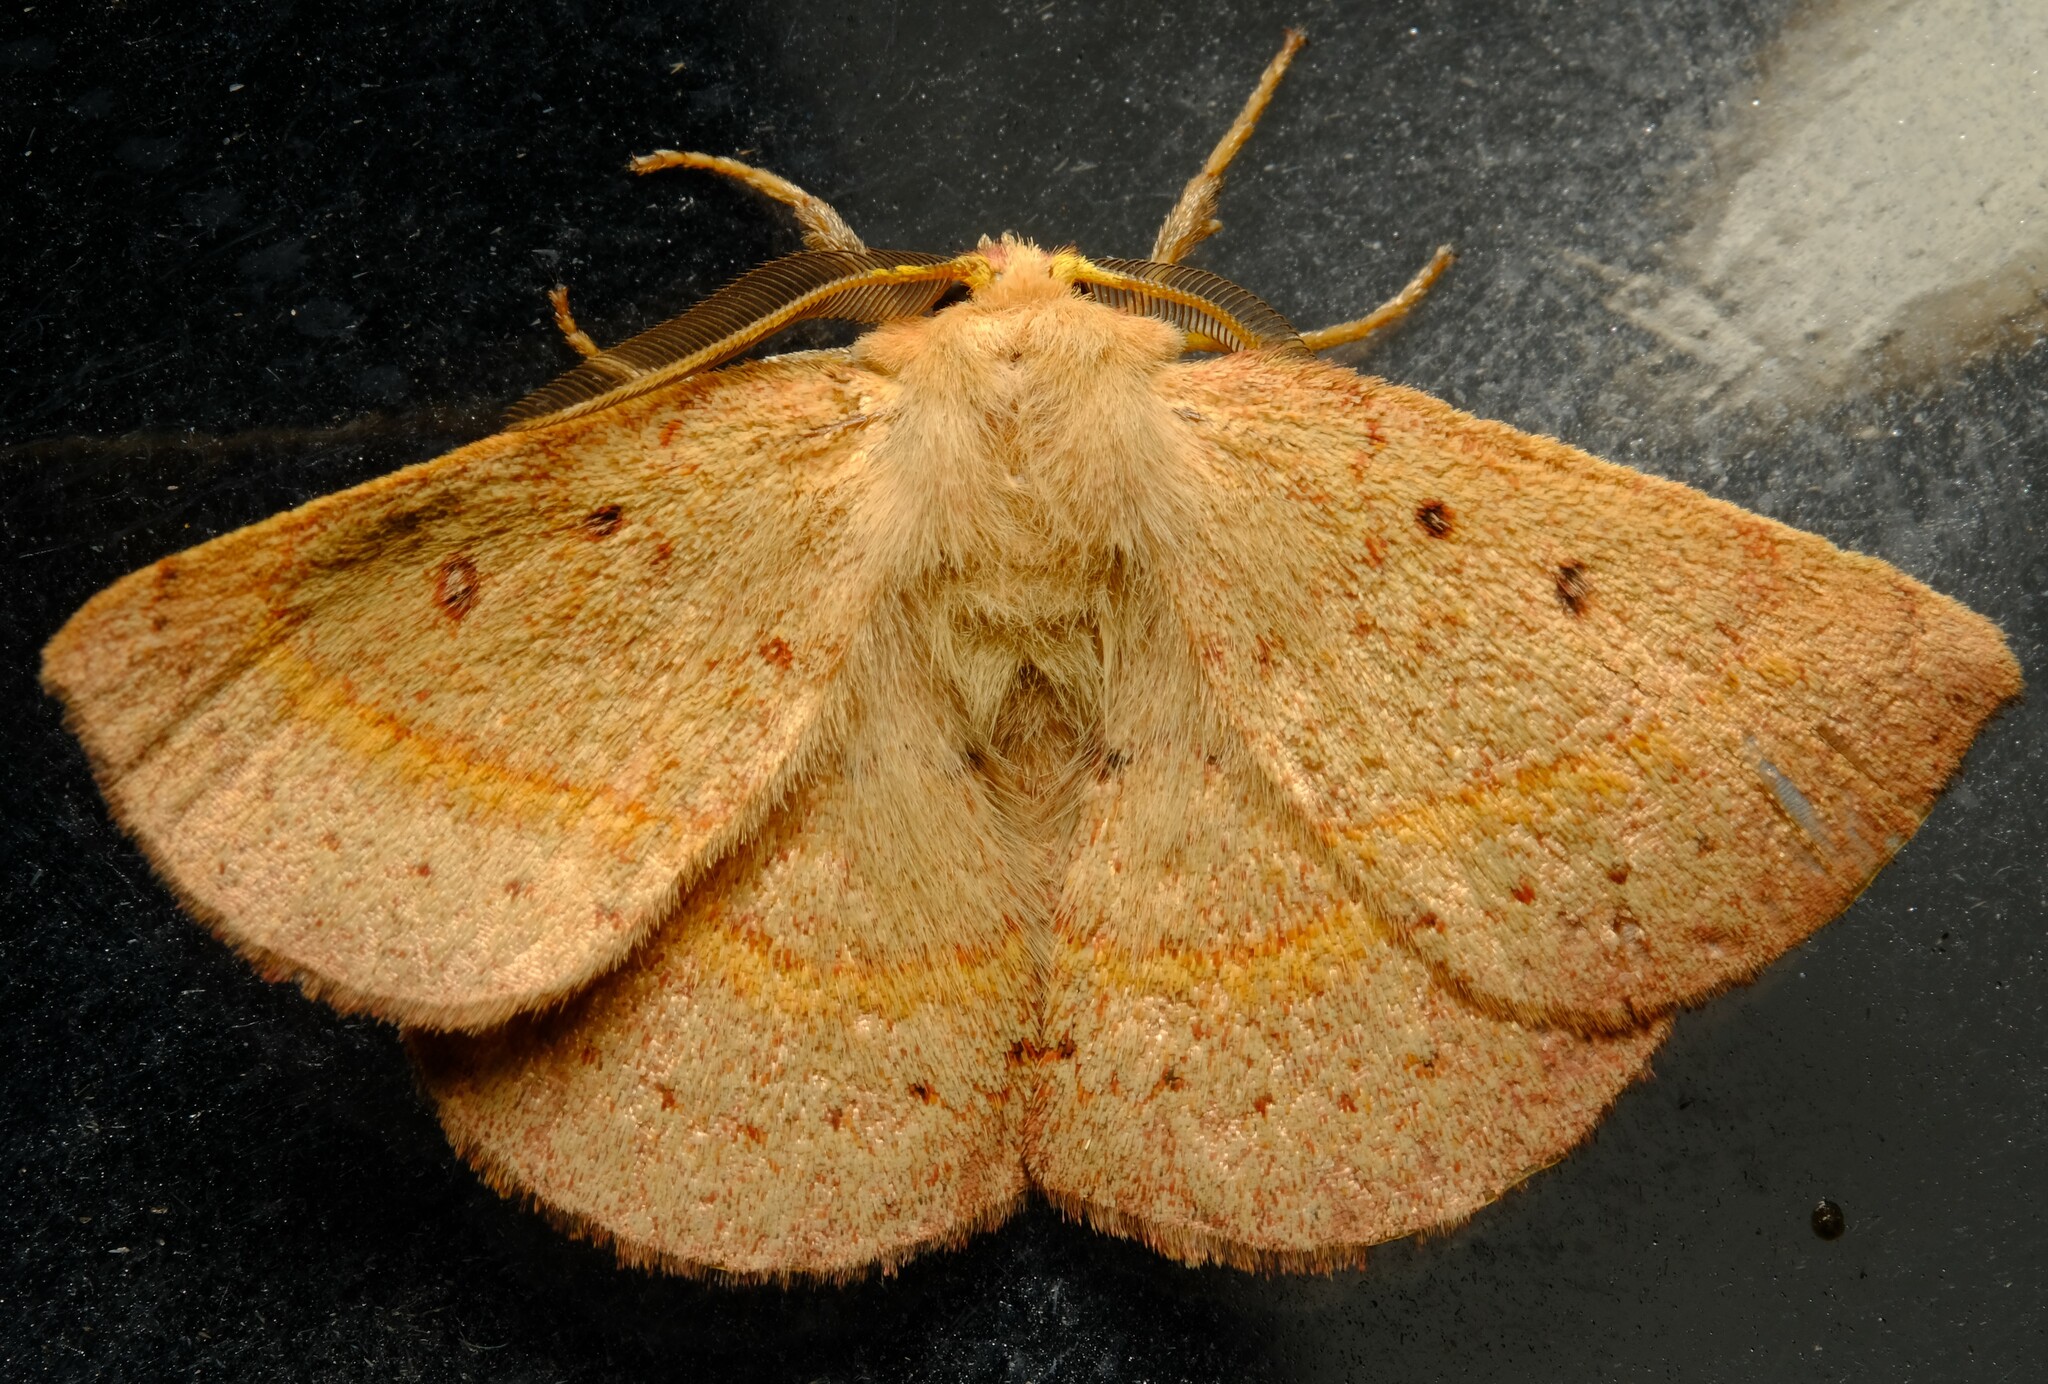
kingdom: Animalia
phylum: Arthropoda
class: Insecta
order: Lepidoptera
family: Anthelidae
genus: Anthela
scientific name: Anthela acuta
